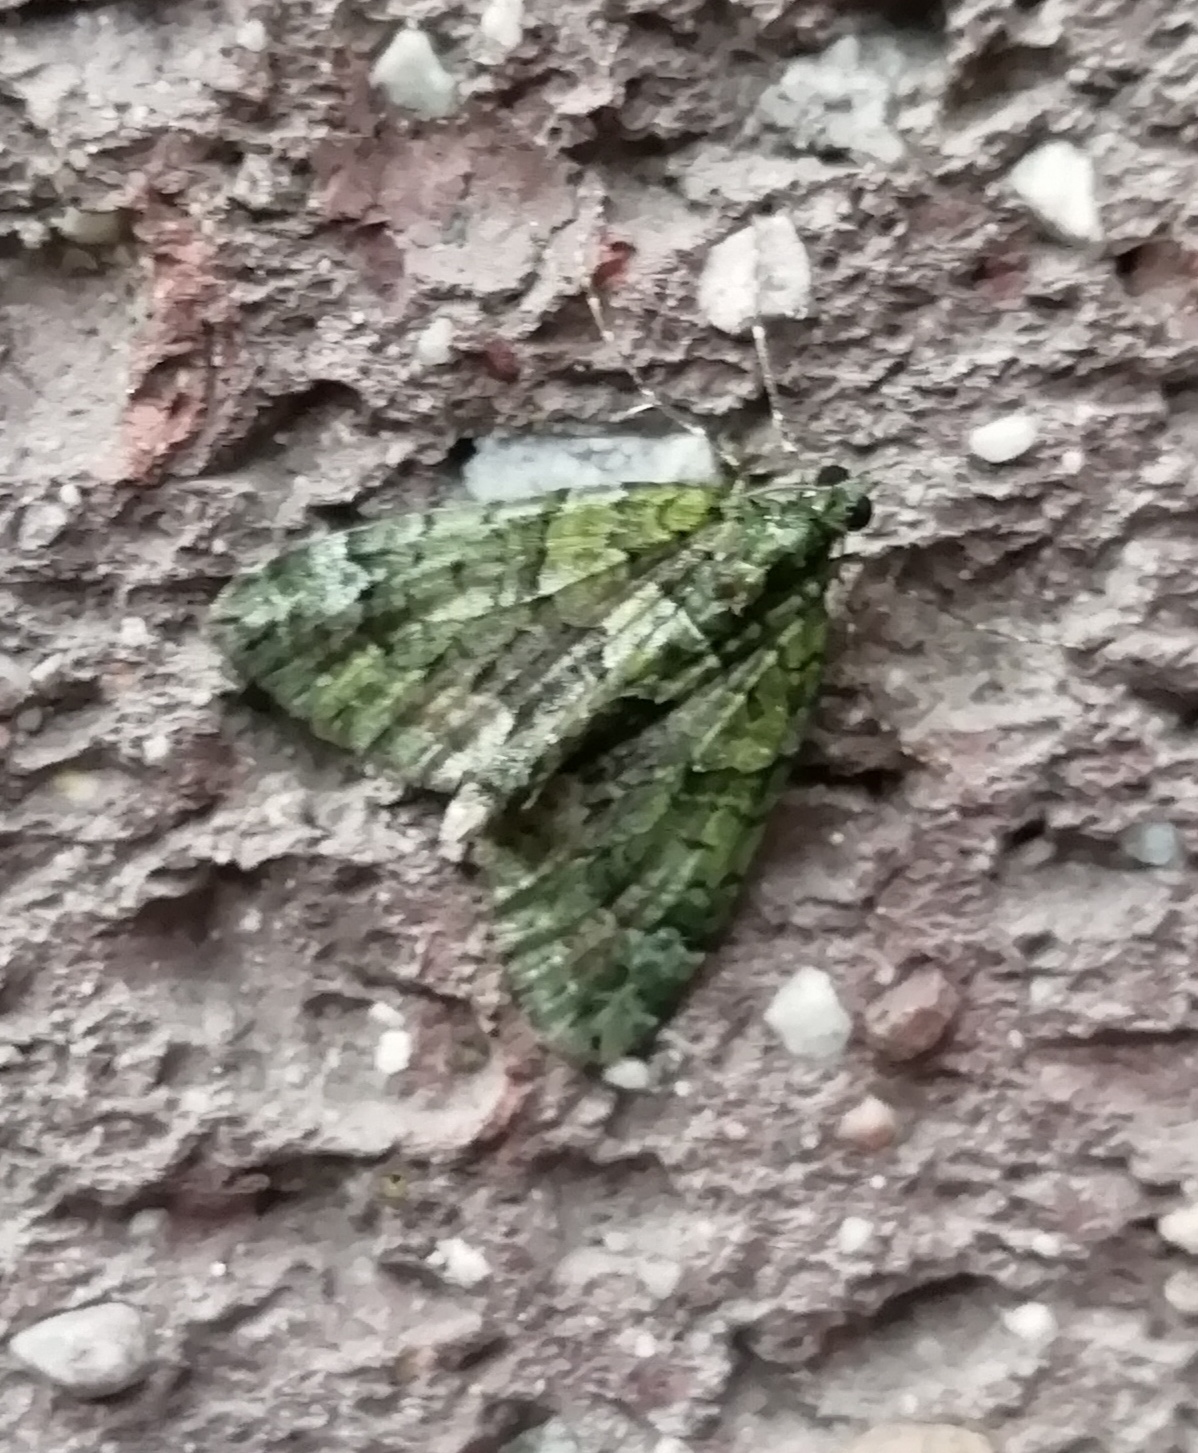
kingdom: Animalia
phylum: Arthropoda
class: Insecta
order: Lepidoptera
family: Geometridae
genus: Chloroclysta
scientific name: Chloroclysta siterata
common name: Red-green carpet
